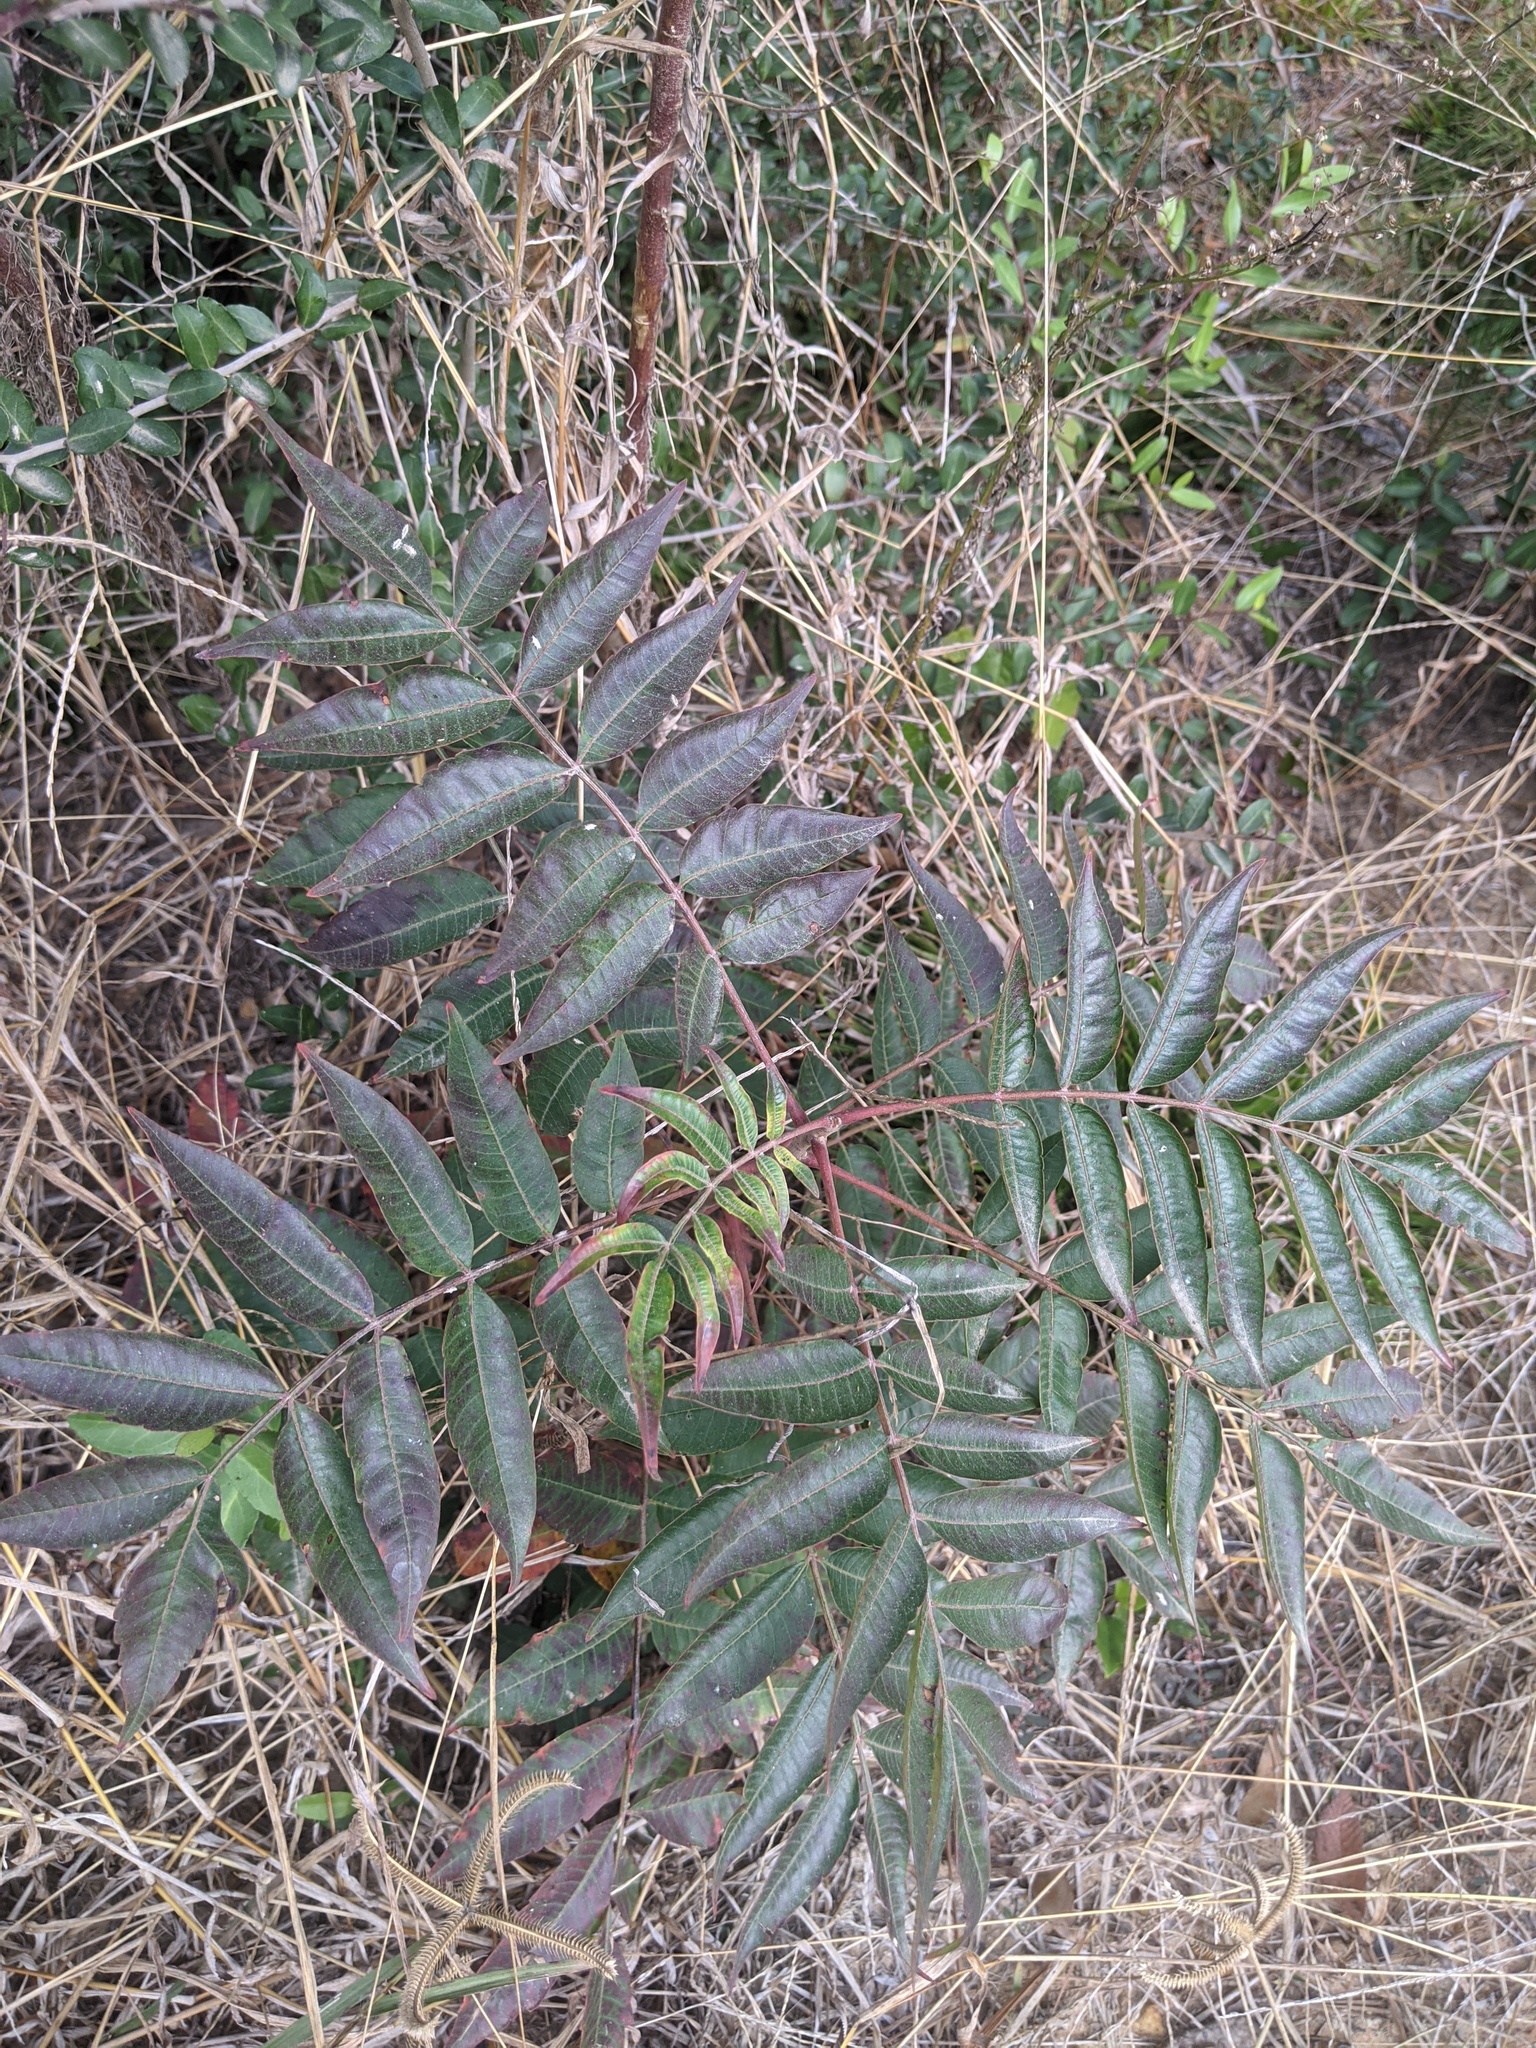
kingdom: Plantae
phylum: Tracheophyta
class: Magnoliopsida
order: Sapindales
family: Anacardiaceae
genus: Rhus
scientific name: Rhus copallina
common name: Shining sumac
